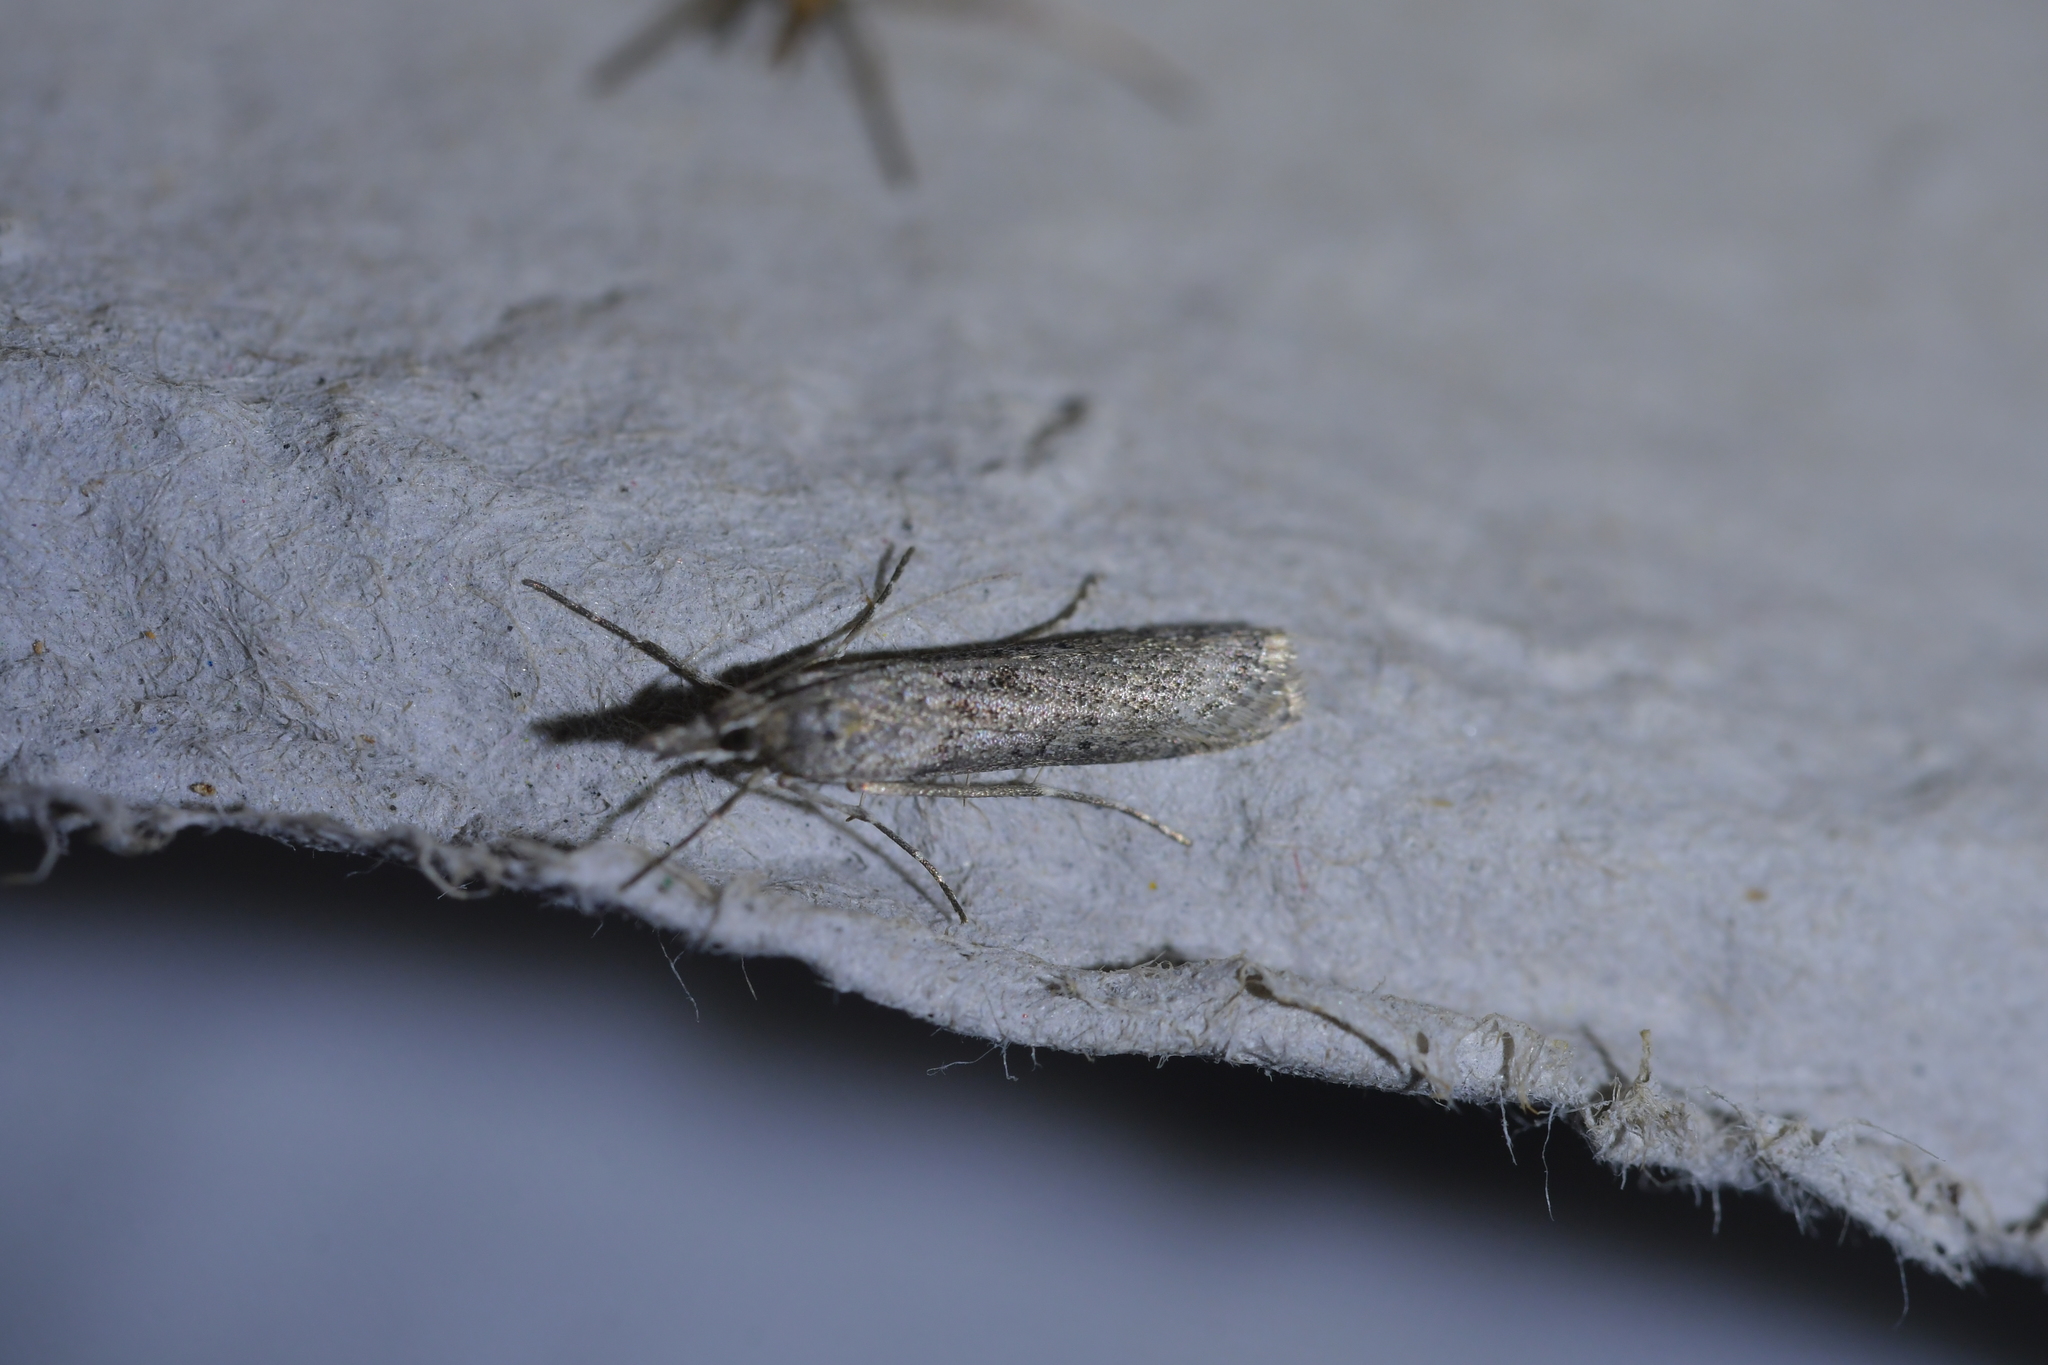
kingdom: Animalia
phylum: Arthropoda
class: Insecta
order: Lepidoptera
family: Crambidae
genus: Eudonia
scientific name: Eudonia leptalea
